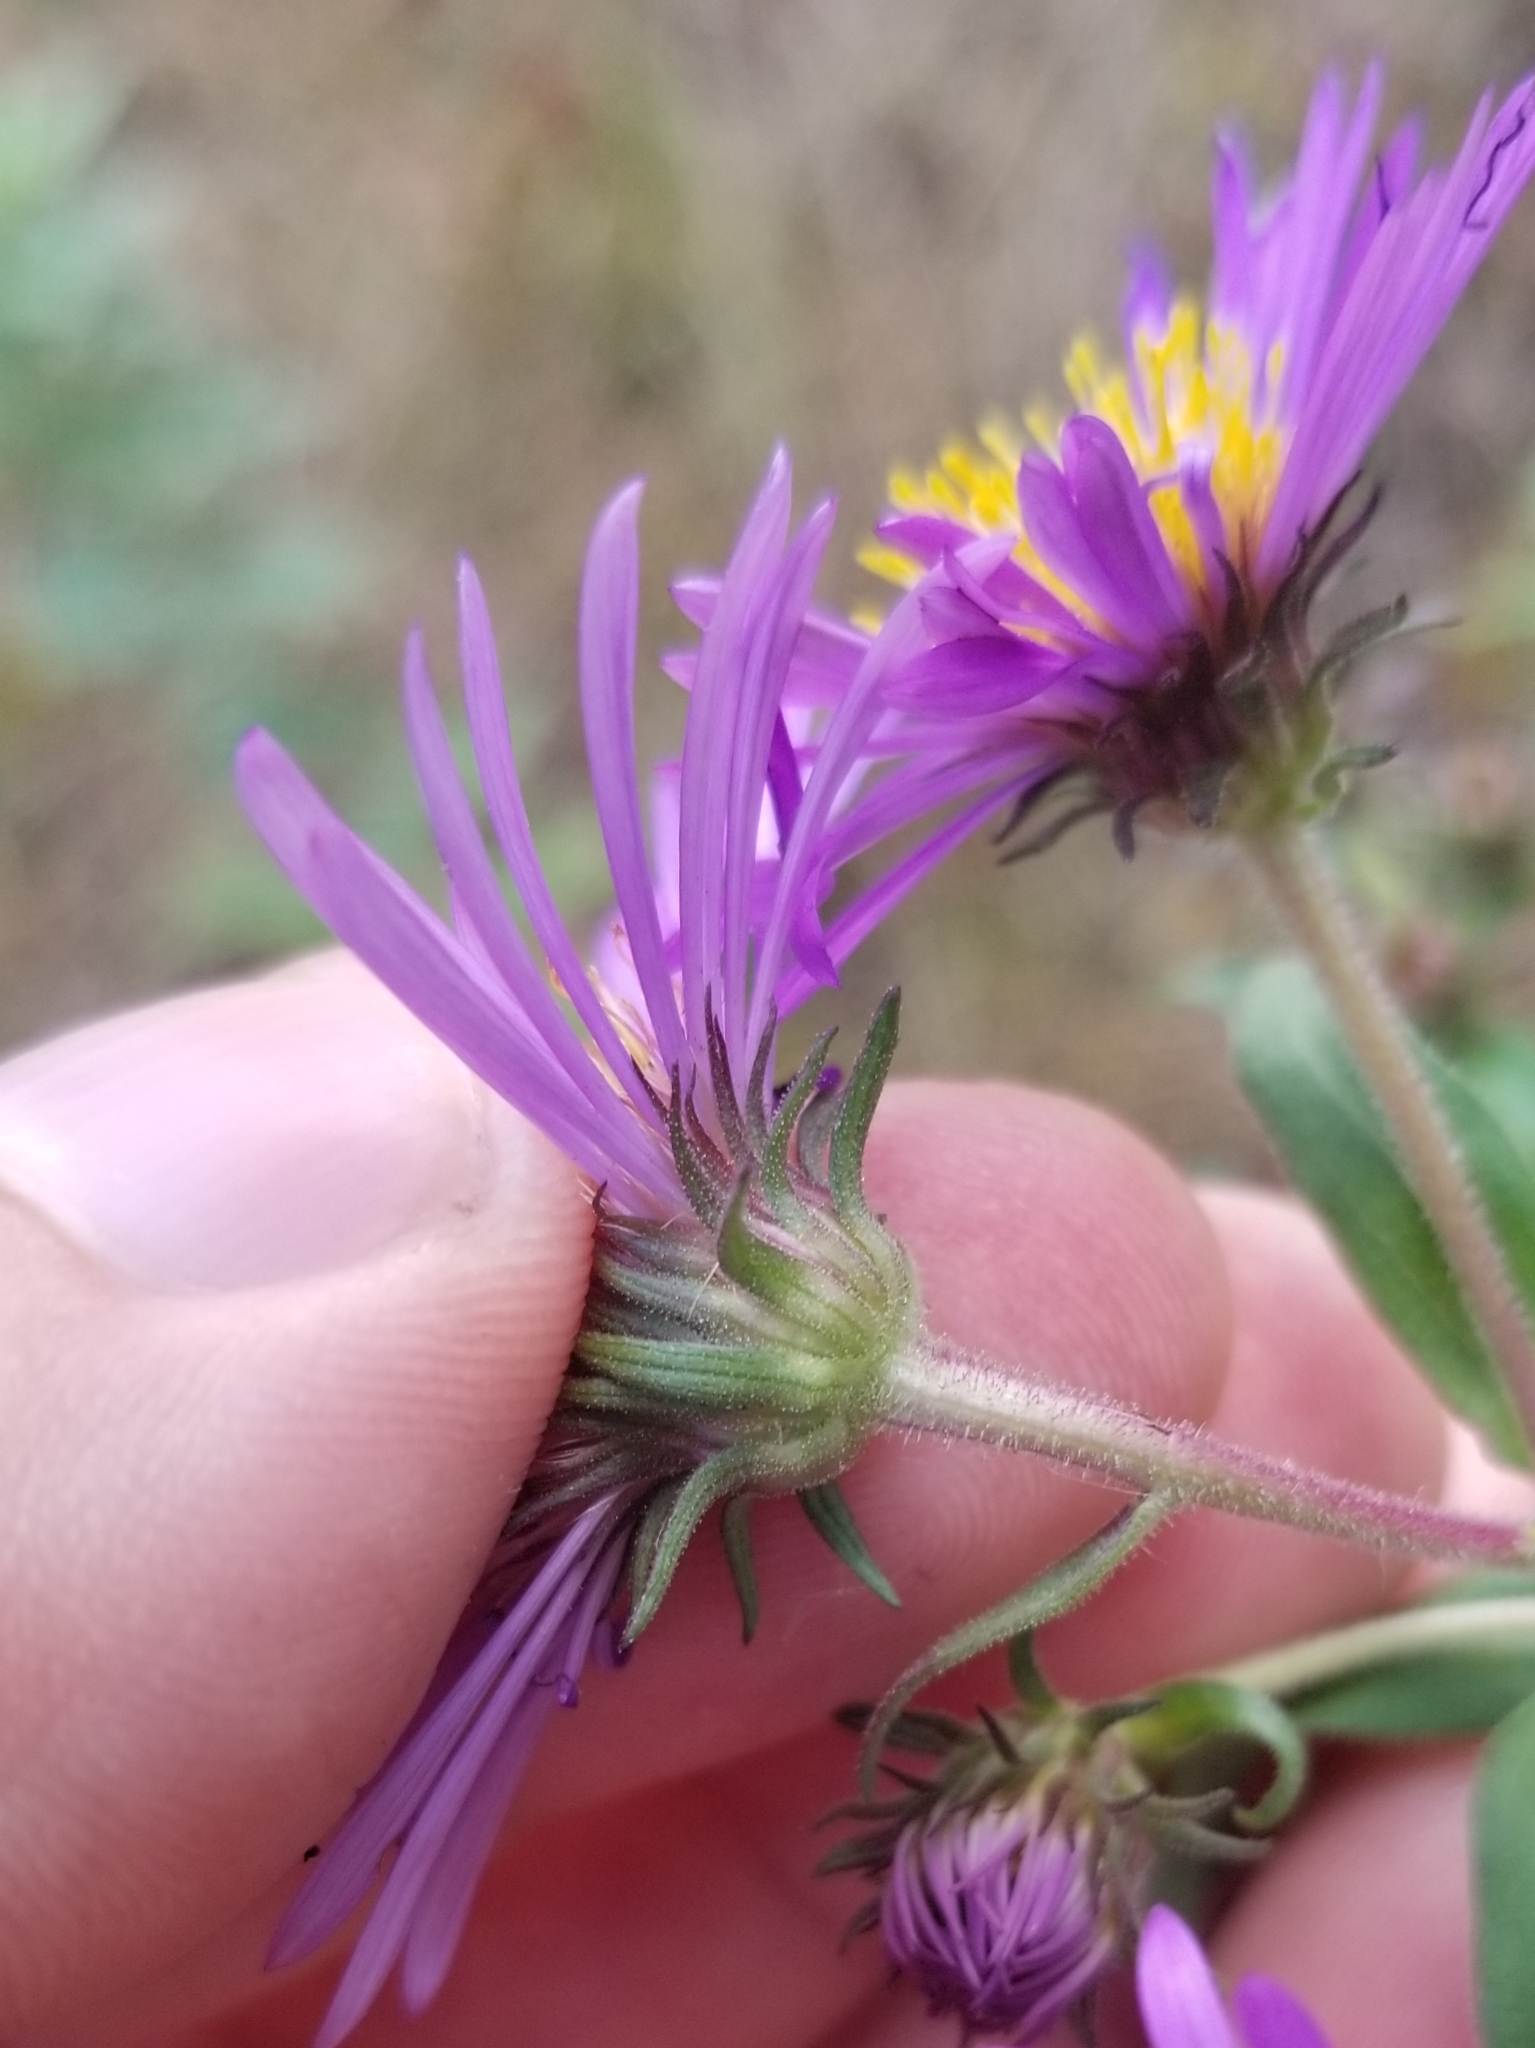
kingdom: Plantae
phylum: Tracheophyta
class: Magnoliopsida
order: Asterales
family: Asteraceae
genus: Symphyotrichum
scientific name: Symphyotrichum novae-angliae
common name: Michaelmas daisy
